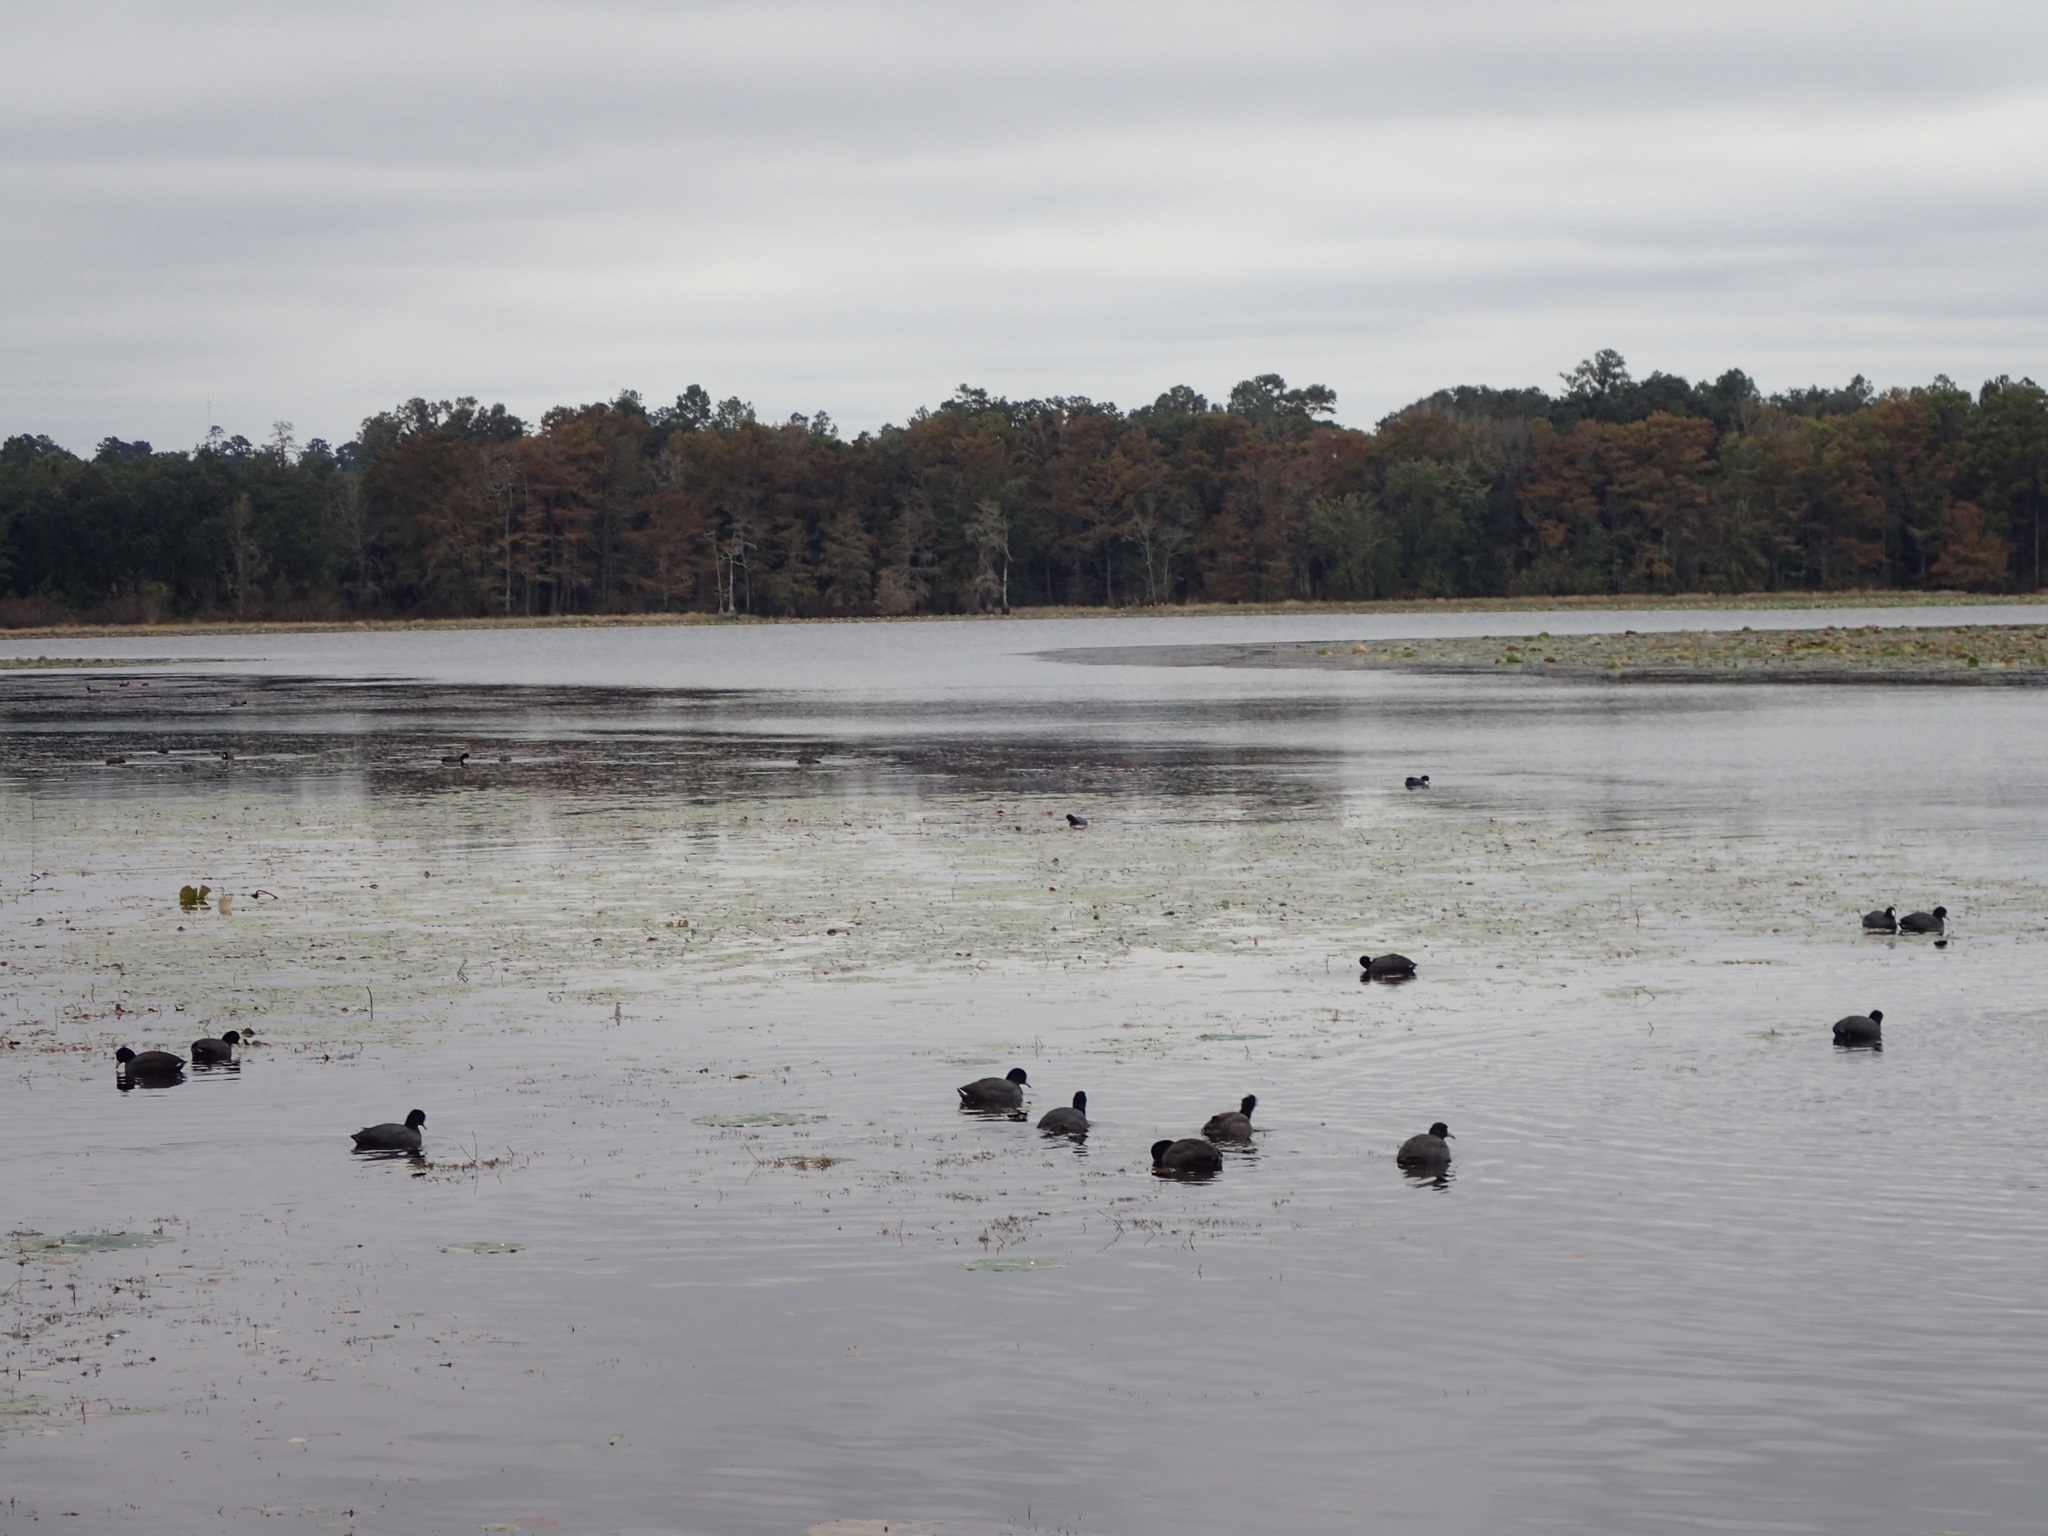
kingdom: Animalia
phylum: Chordata
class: Aves
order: Gruiformes
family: Rallidae
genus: Fulica
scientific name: Fulica americana
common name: American coot
